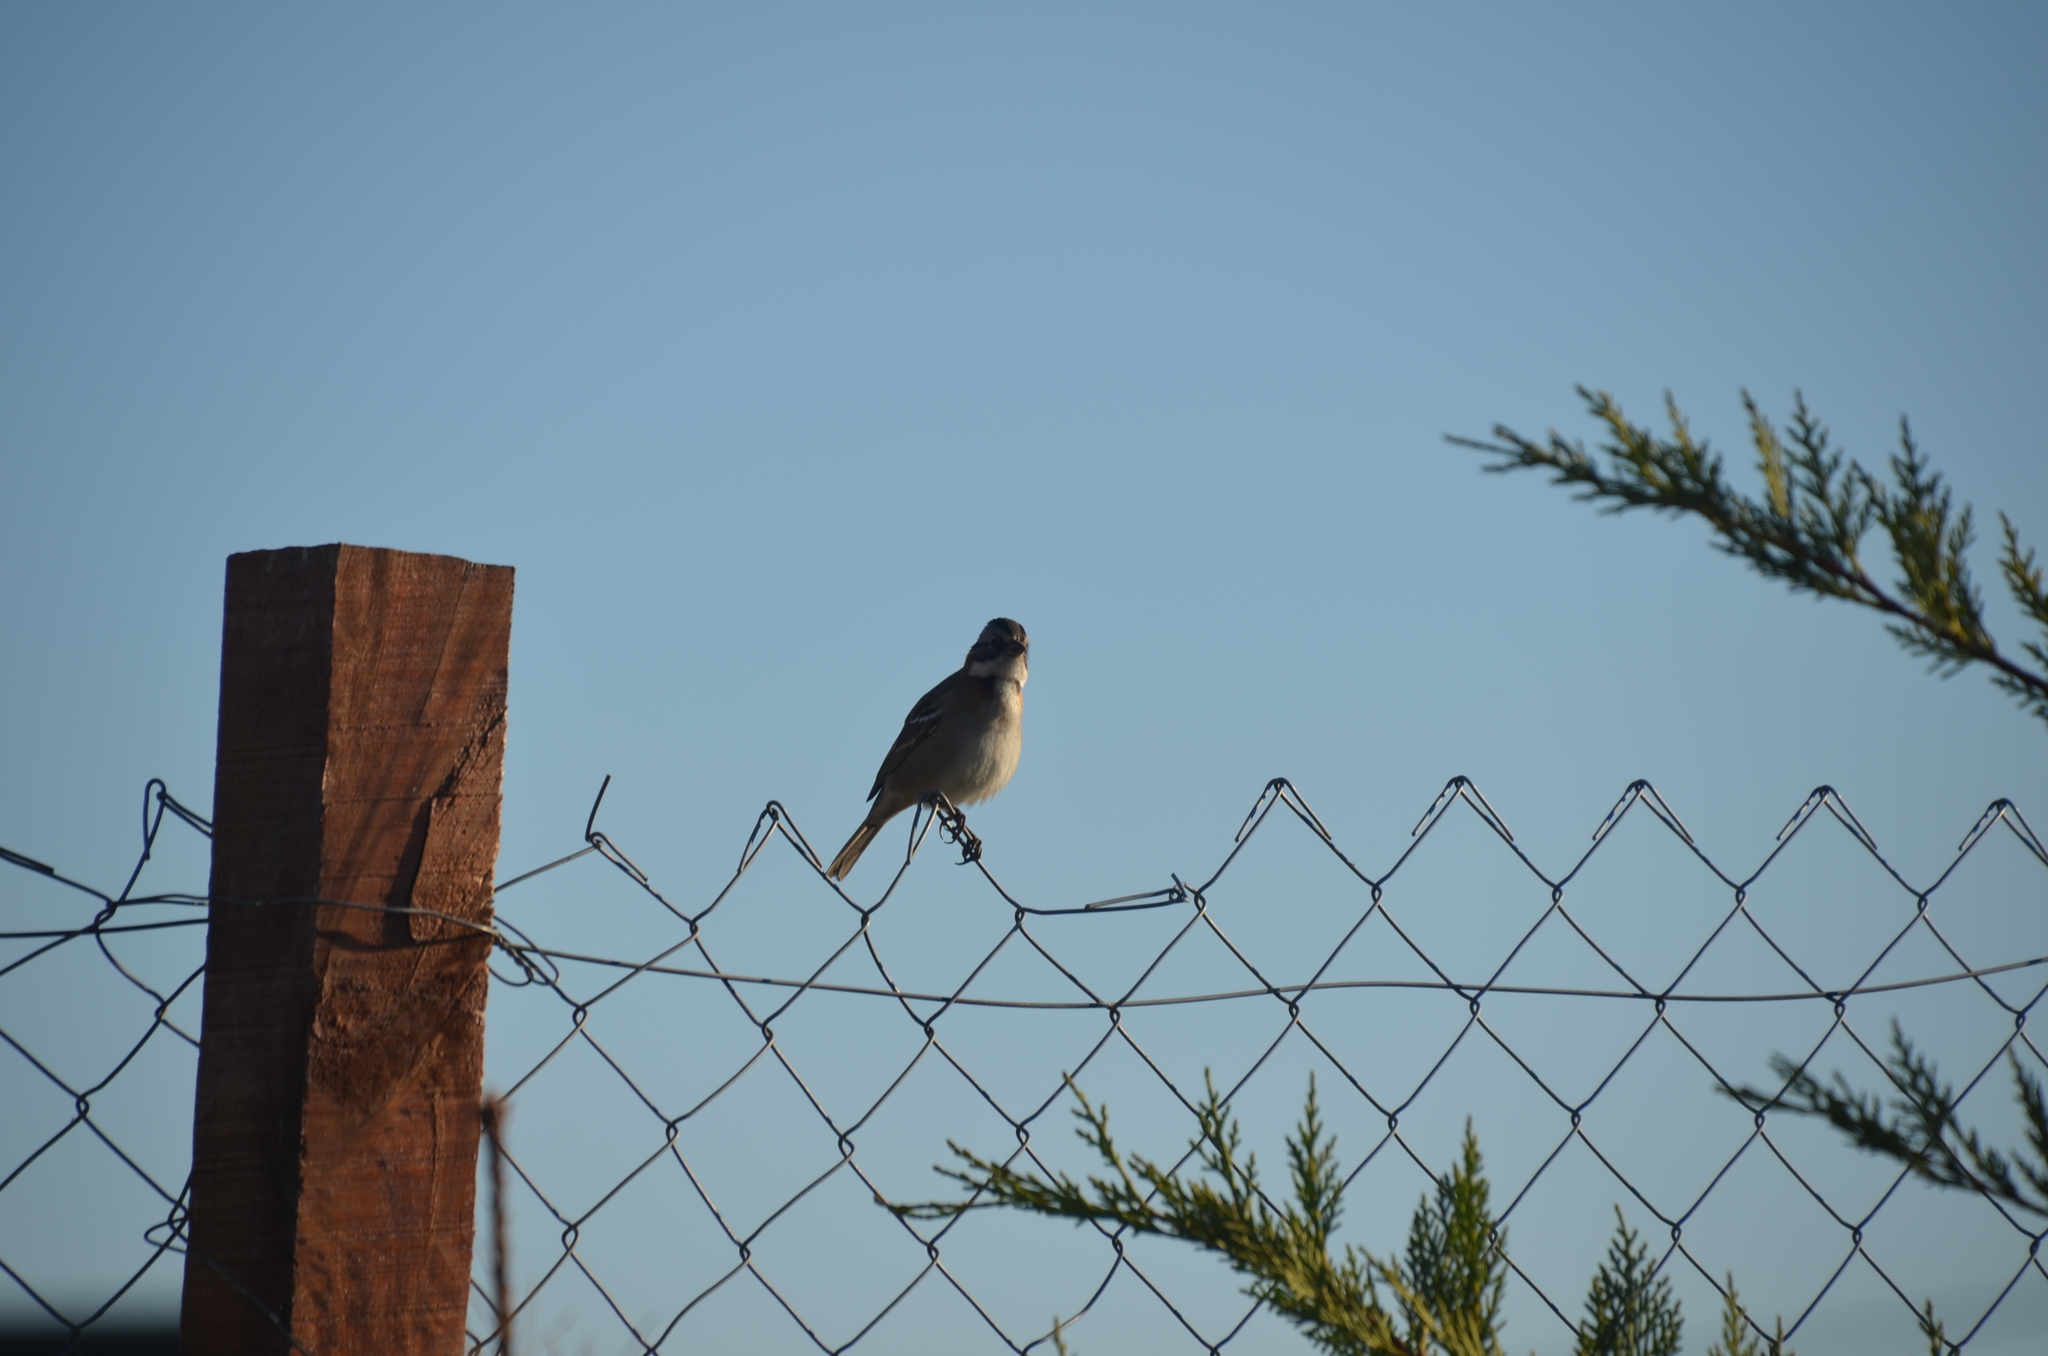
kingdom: Animalia
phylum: Chordata
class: Aves
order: Passeriformes
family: Passerellidae
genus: Zonotrichia
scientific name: Zonotrichia capensis
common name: Rufous-collared sparrow
